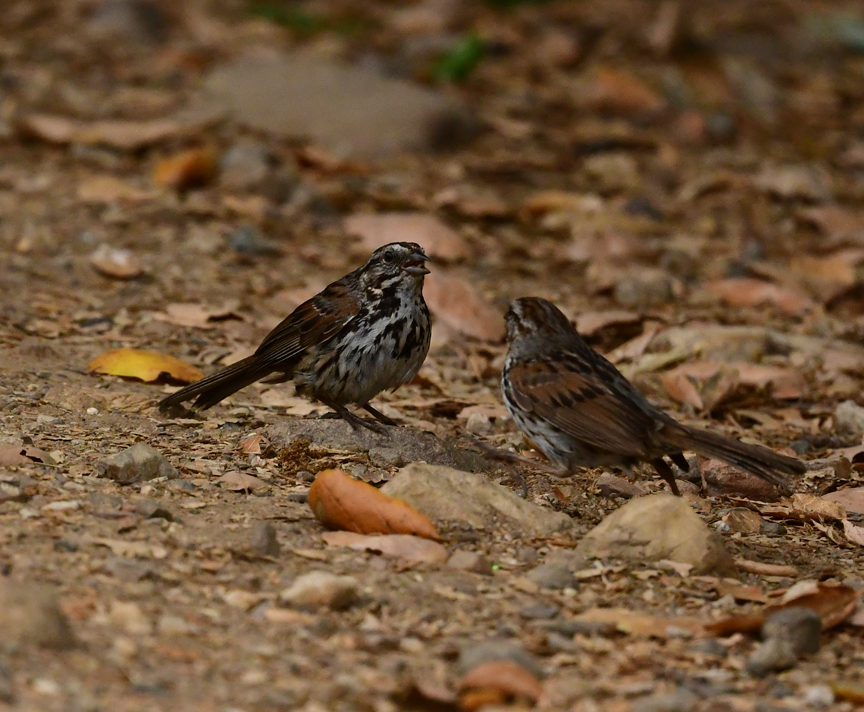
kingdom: Animalia
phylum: Chordata
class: Aves
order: Passeriformes
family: Passerellidae
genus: Melospiza
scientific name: Melospiza melodia
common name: Song sparrow
